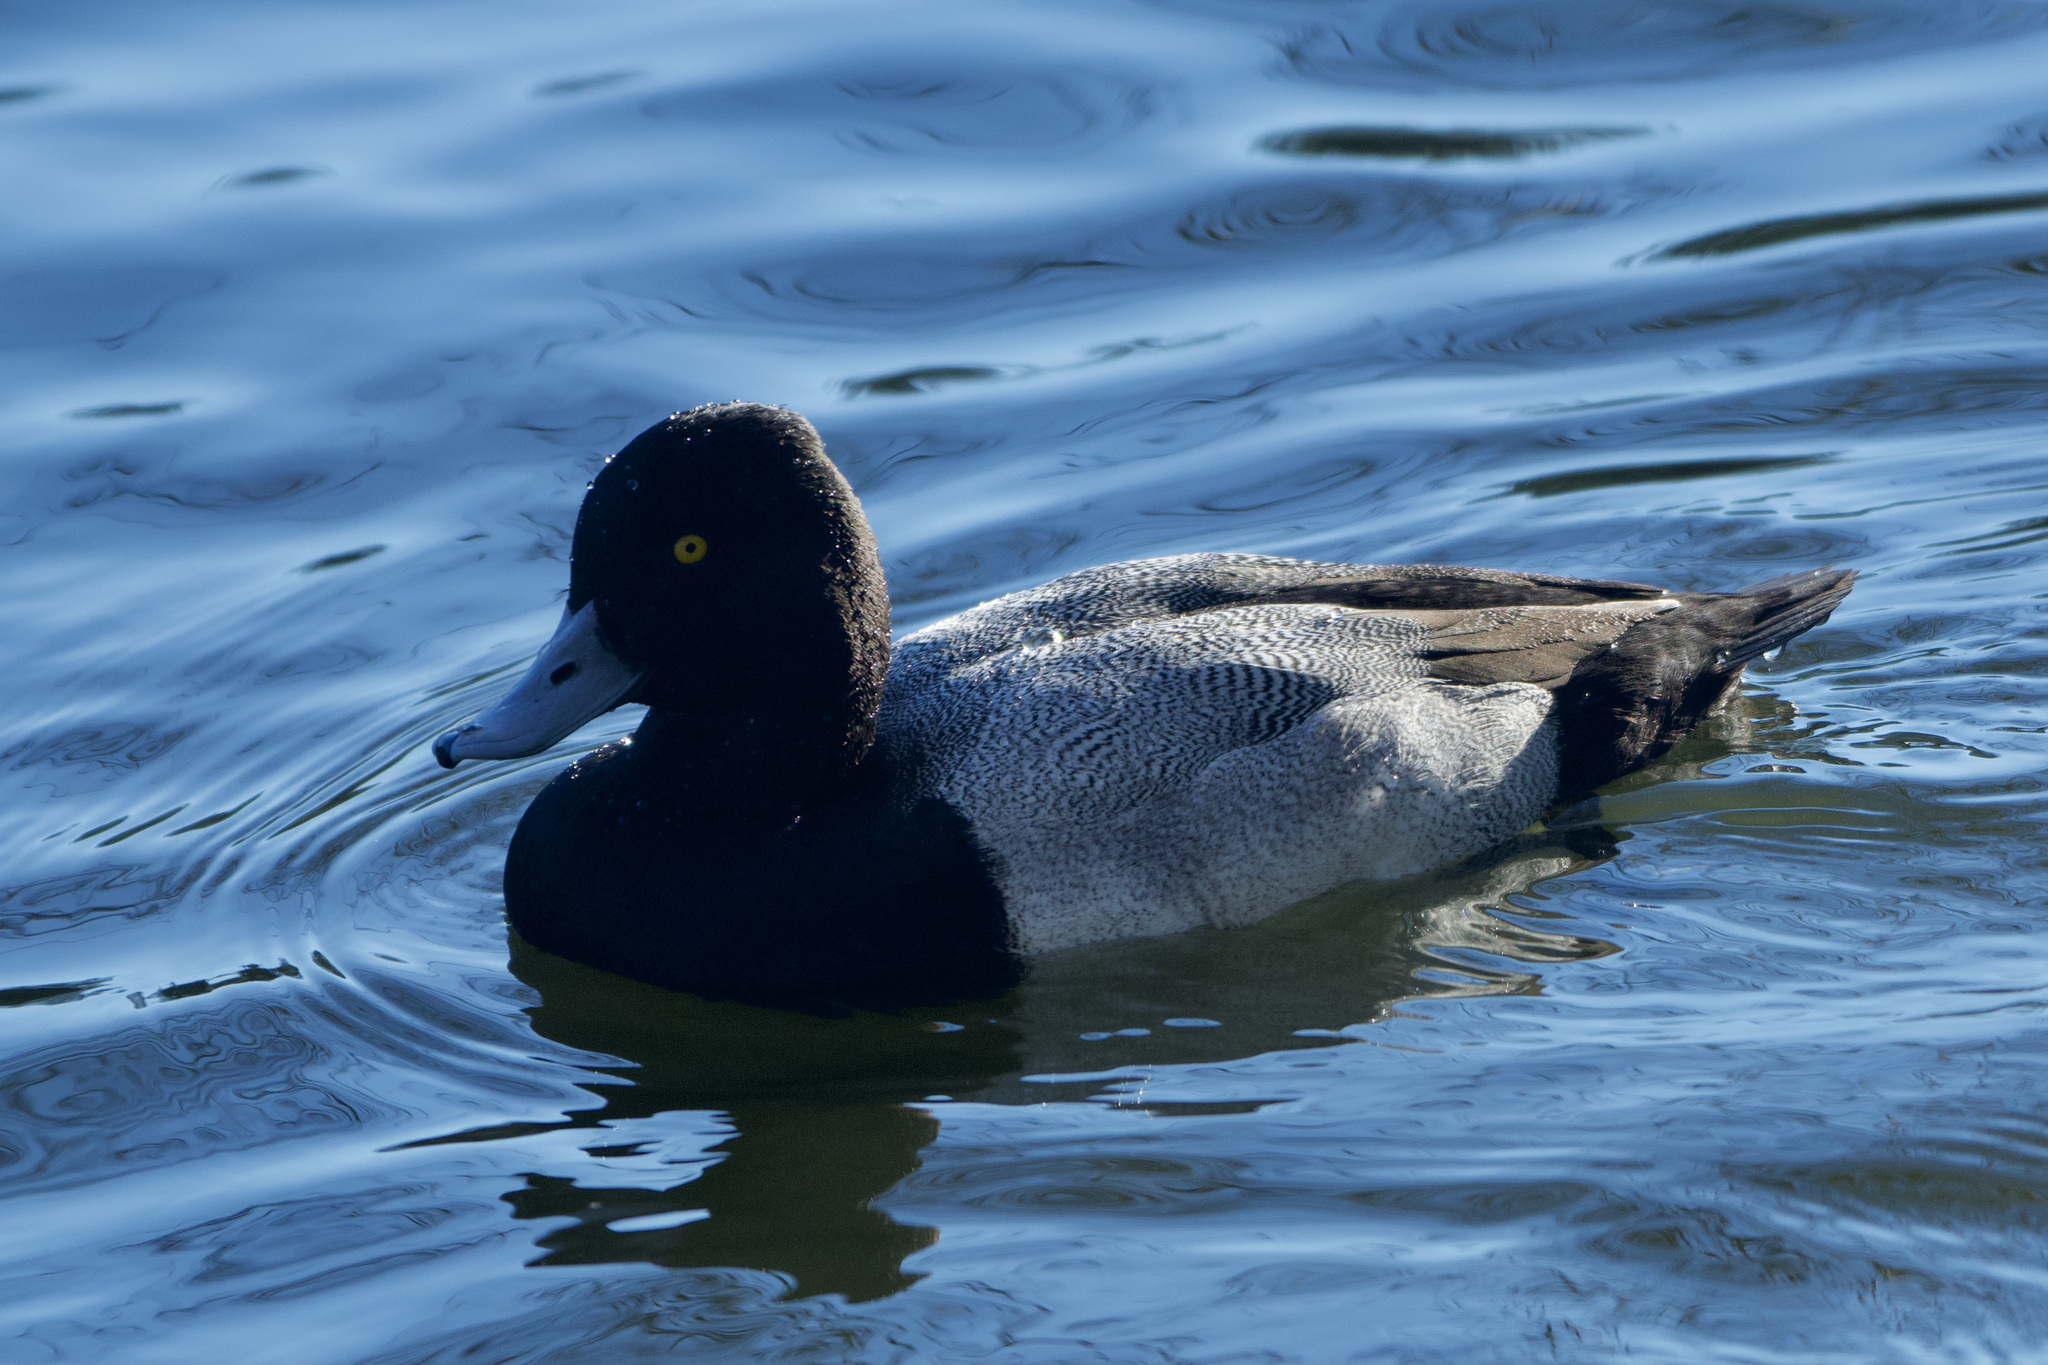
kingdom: Animalia
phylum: Chordata
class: Aves
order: Anseriformes
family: Anatidae
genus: Aythya
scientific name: Aythya affinis
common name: Lesser scaup
